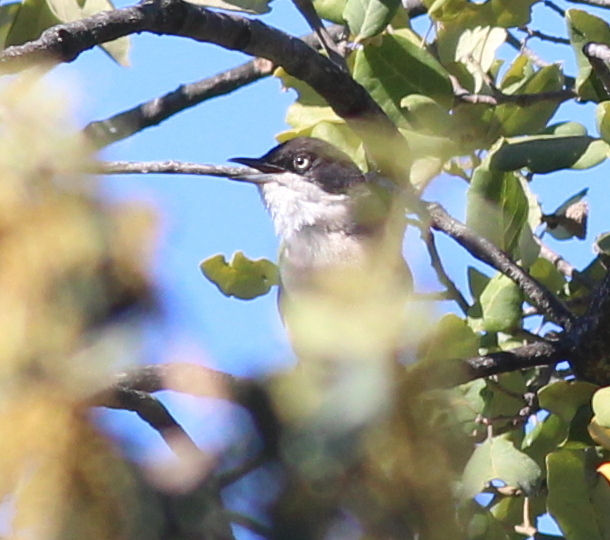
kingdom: Animalia
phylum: Chordata
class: Aves
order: Passeriformes
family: Sylviidae
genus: Sylvia
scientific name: Sylvia hortensis
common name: Orphean warbler
